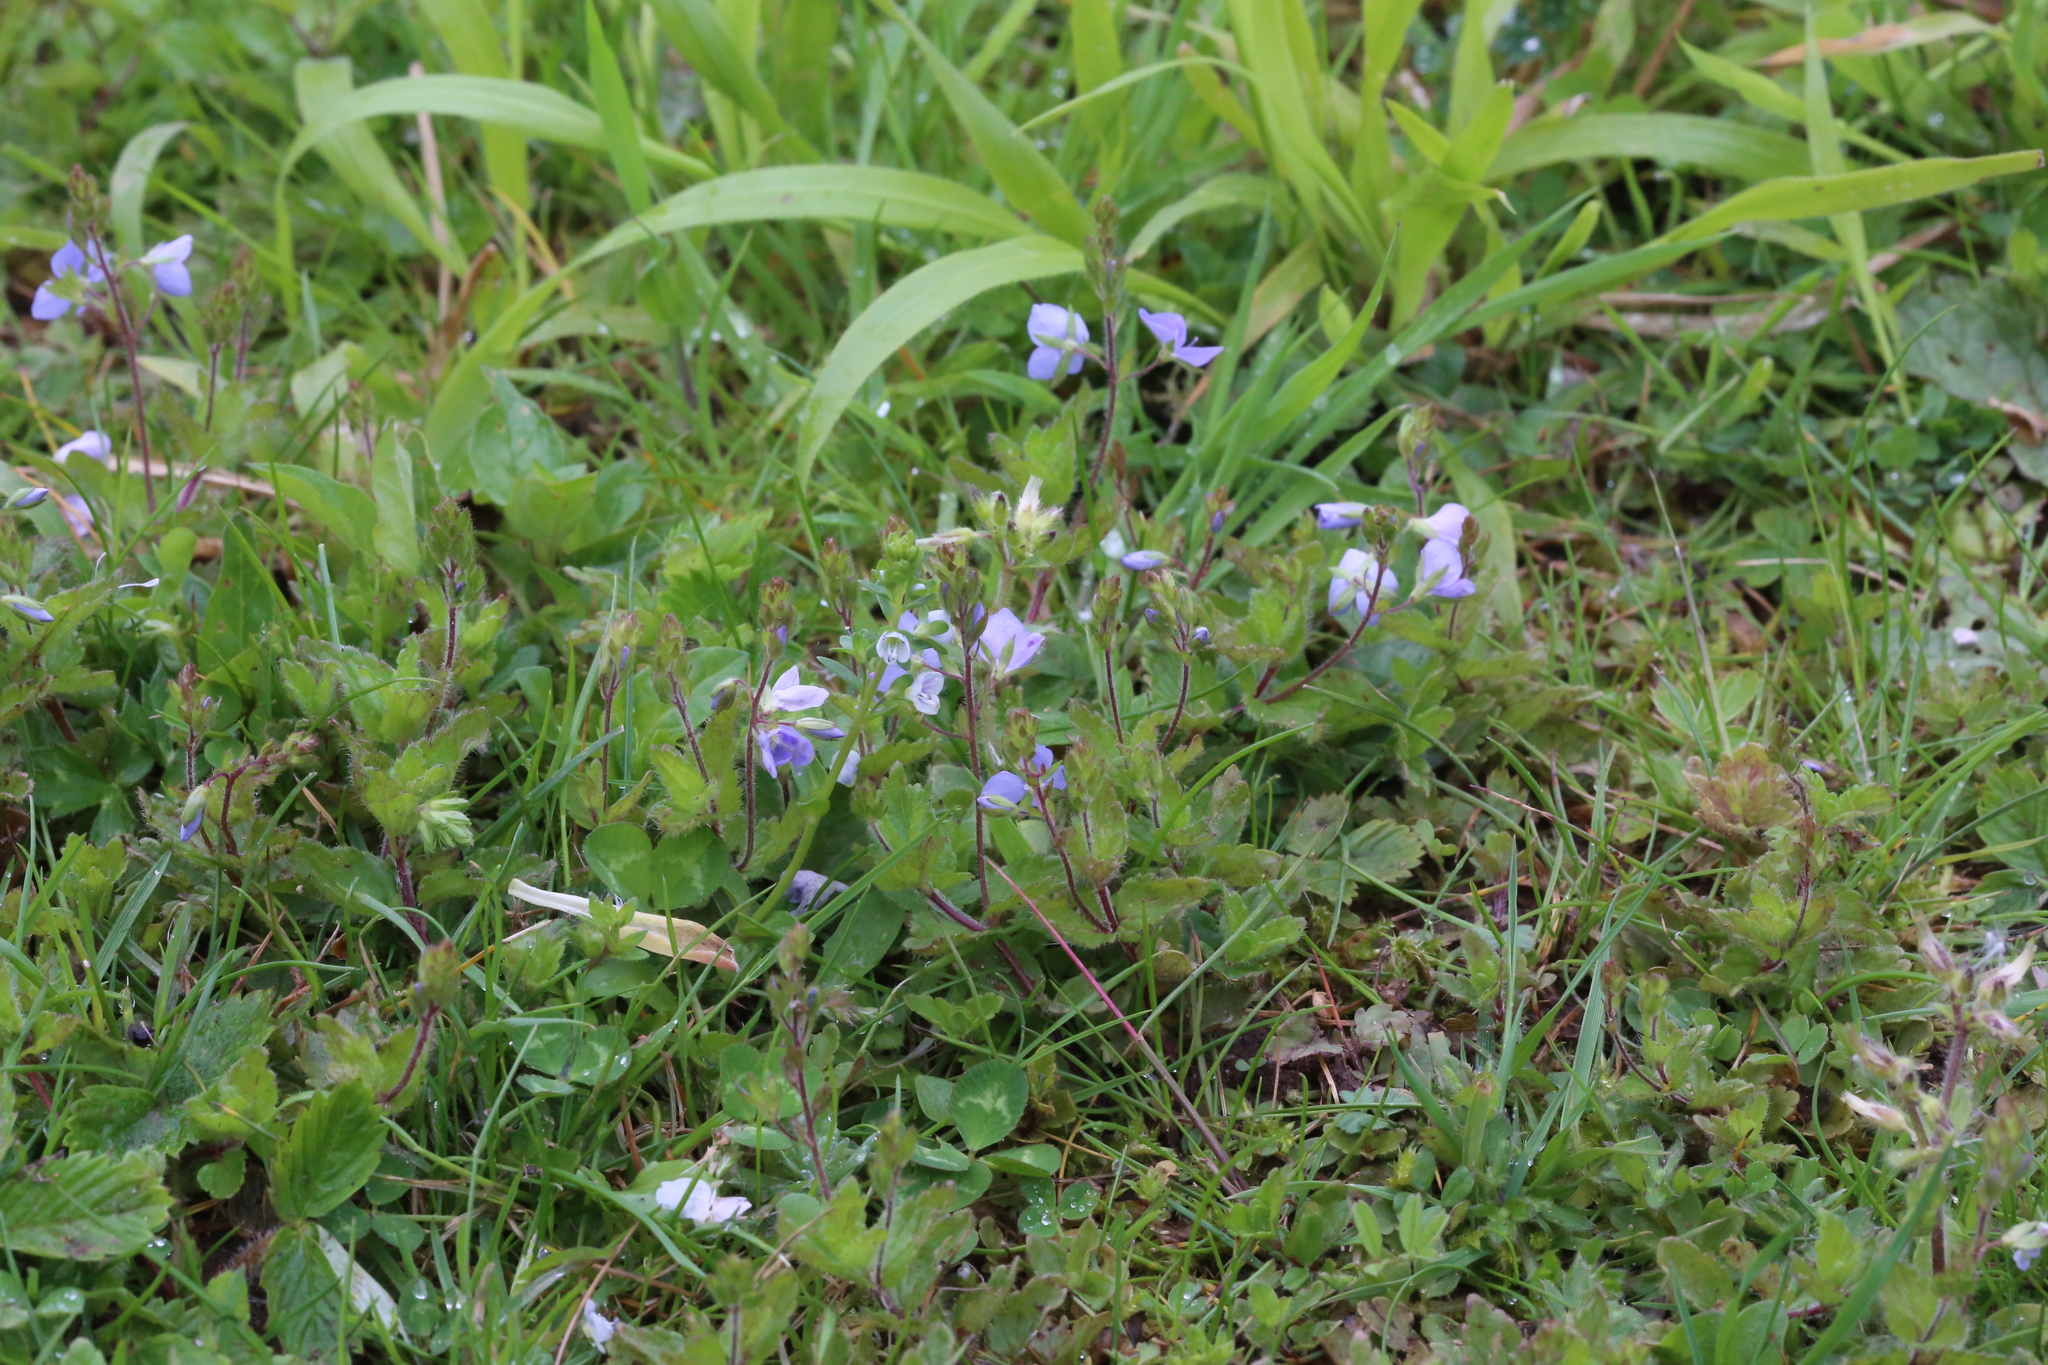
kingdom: Plantae
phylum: Tracheophyta
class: Magnoliopsida
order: Lamiales
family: Plantaginaceae
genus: Veronica
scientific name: Veronica chamaedrys
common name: Germander speedwell
